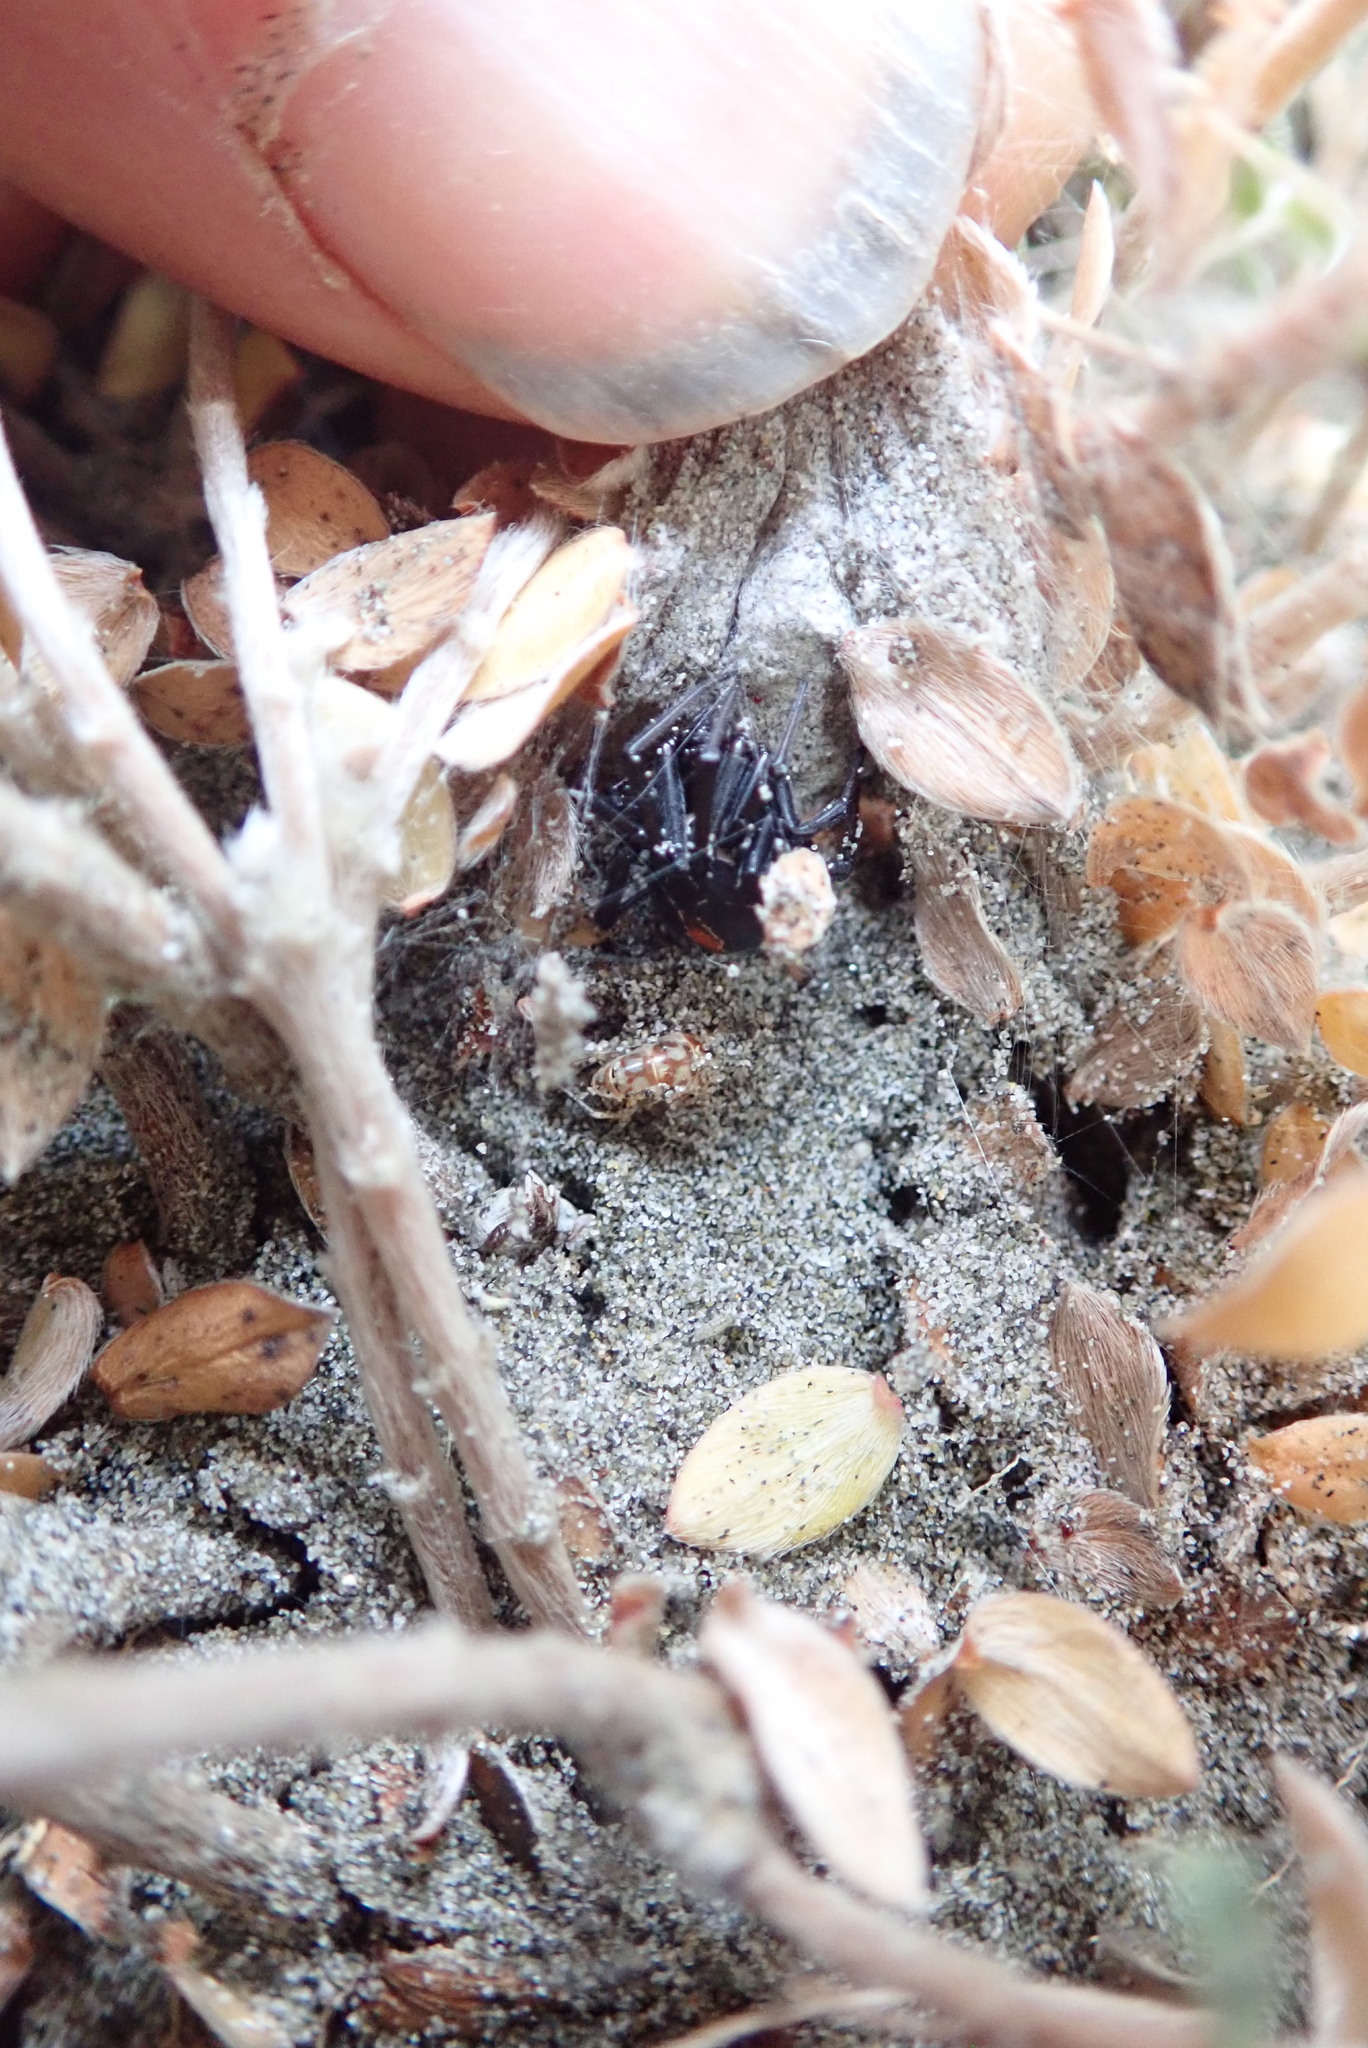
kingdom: Animalia
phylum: Arthropoda
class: Arachnida
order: Araneae
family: Theridiidae
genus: Latrodectus
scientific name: Latrodectus katipo
